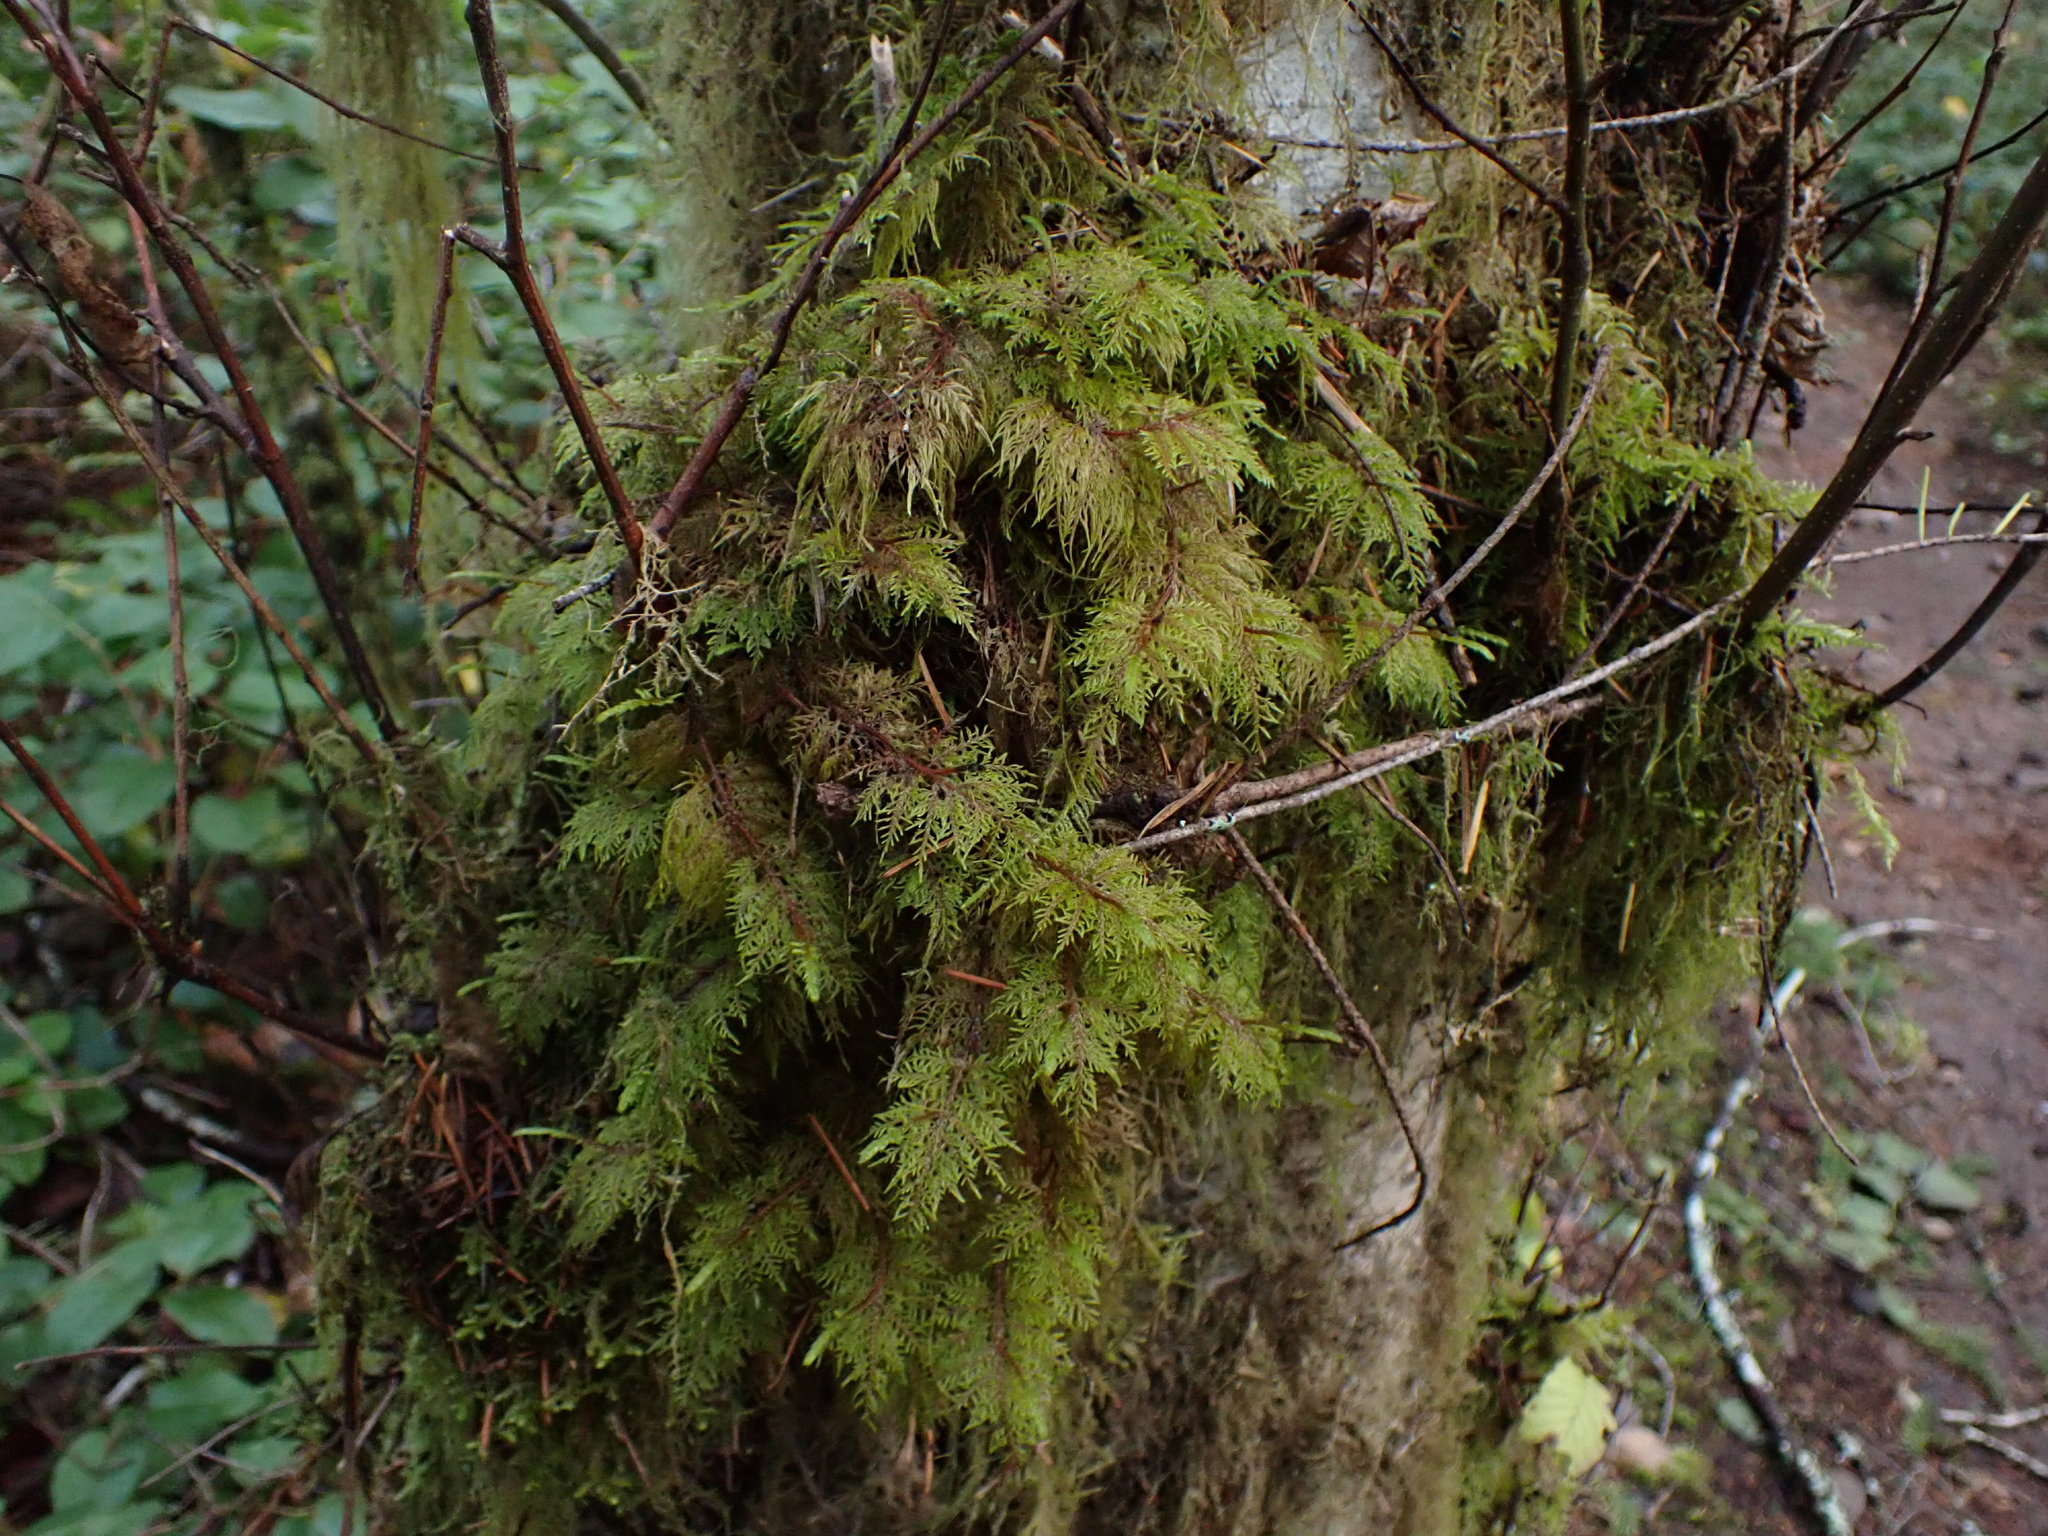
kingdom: Plantae
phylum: Bryophyta
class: Bryopsida
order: Hypnales
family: Hylocomiaceae
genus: Hylocomium
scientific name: Hylocomium splendens
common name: Stairstep moss
